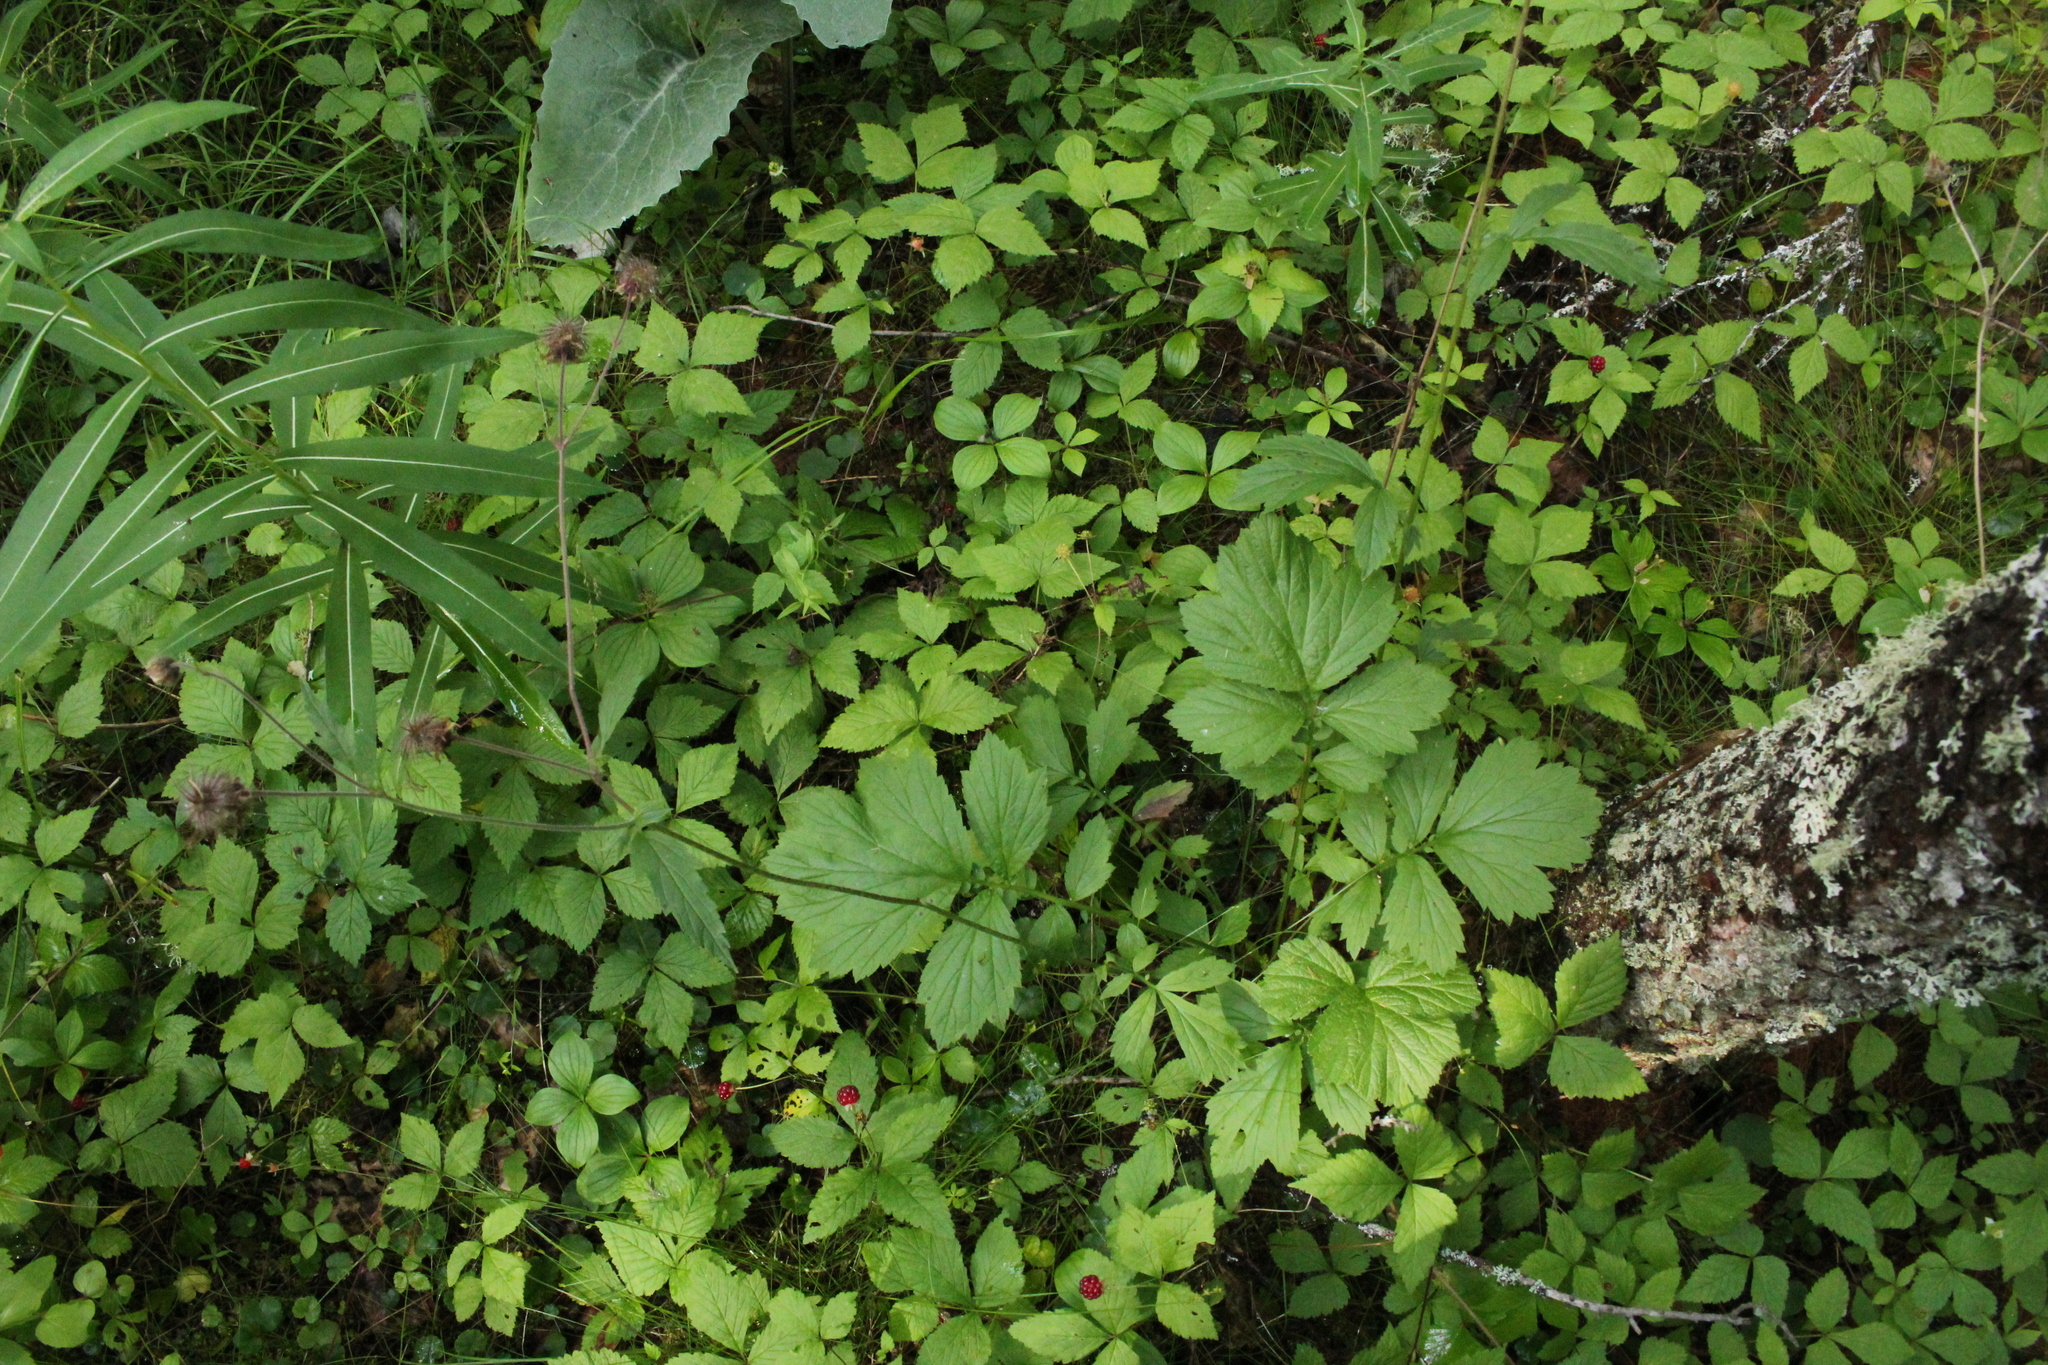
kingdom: Plantae
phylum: Tracheophyta
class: Magnoliopsida
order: Rosales
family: Rosaceae
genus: Geum
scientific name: Geum rivale
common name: Water avens
